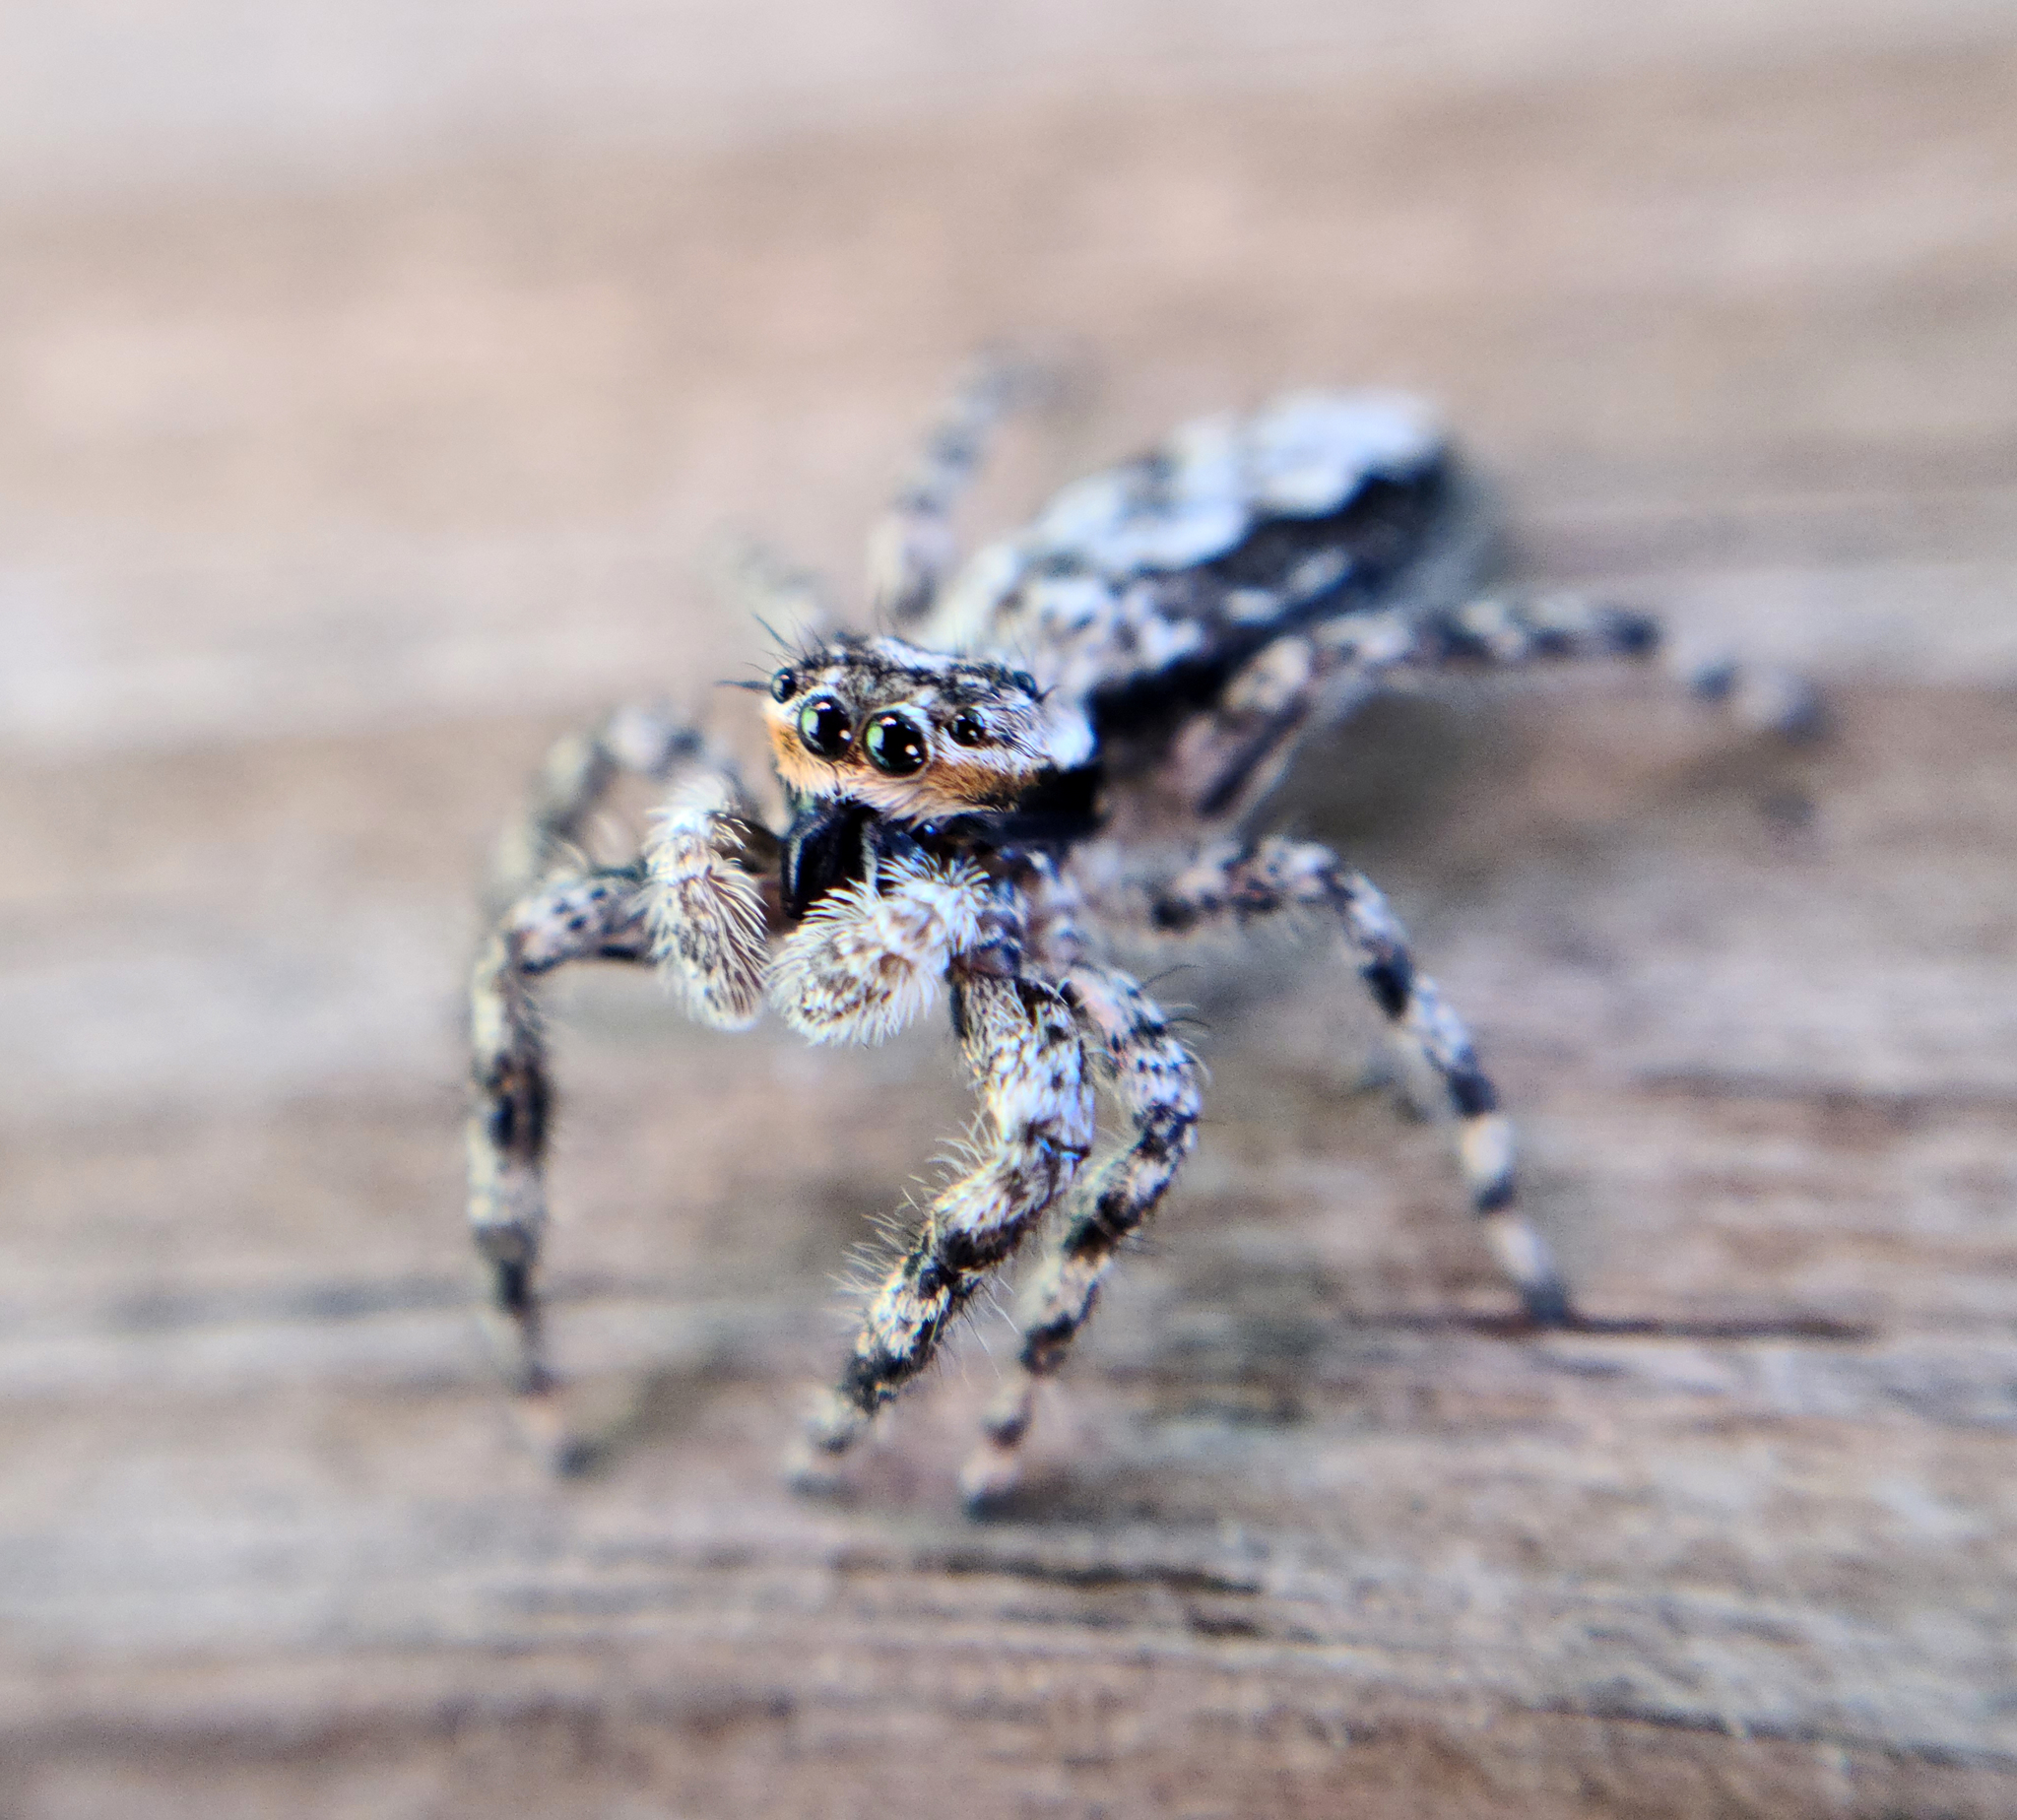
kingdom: Animalia
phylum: Arthropoda
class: Arachnida
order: Araneae
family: Salticidae
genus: Platycryptus
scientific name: Platycryptus undatus
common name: Tan jumping spider
